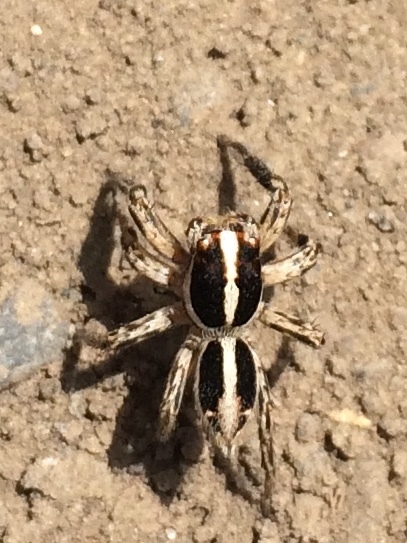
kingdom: Animalia
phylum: Arthropoda
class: Arachnida
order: Araneae
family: Salticidae
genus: Plexippus
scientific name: Plexippus paykulli
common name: Pantropical jumper
